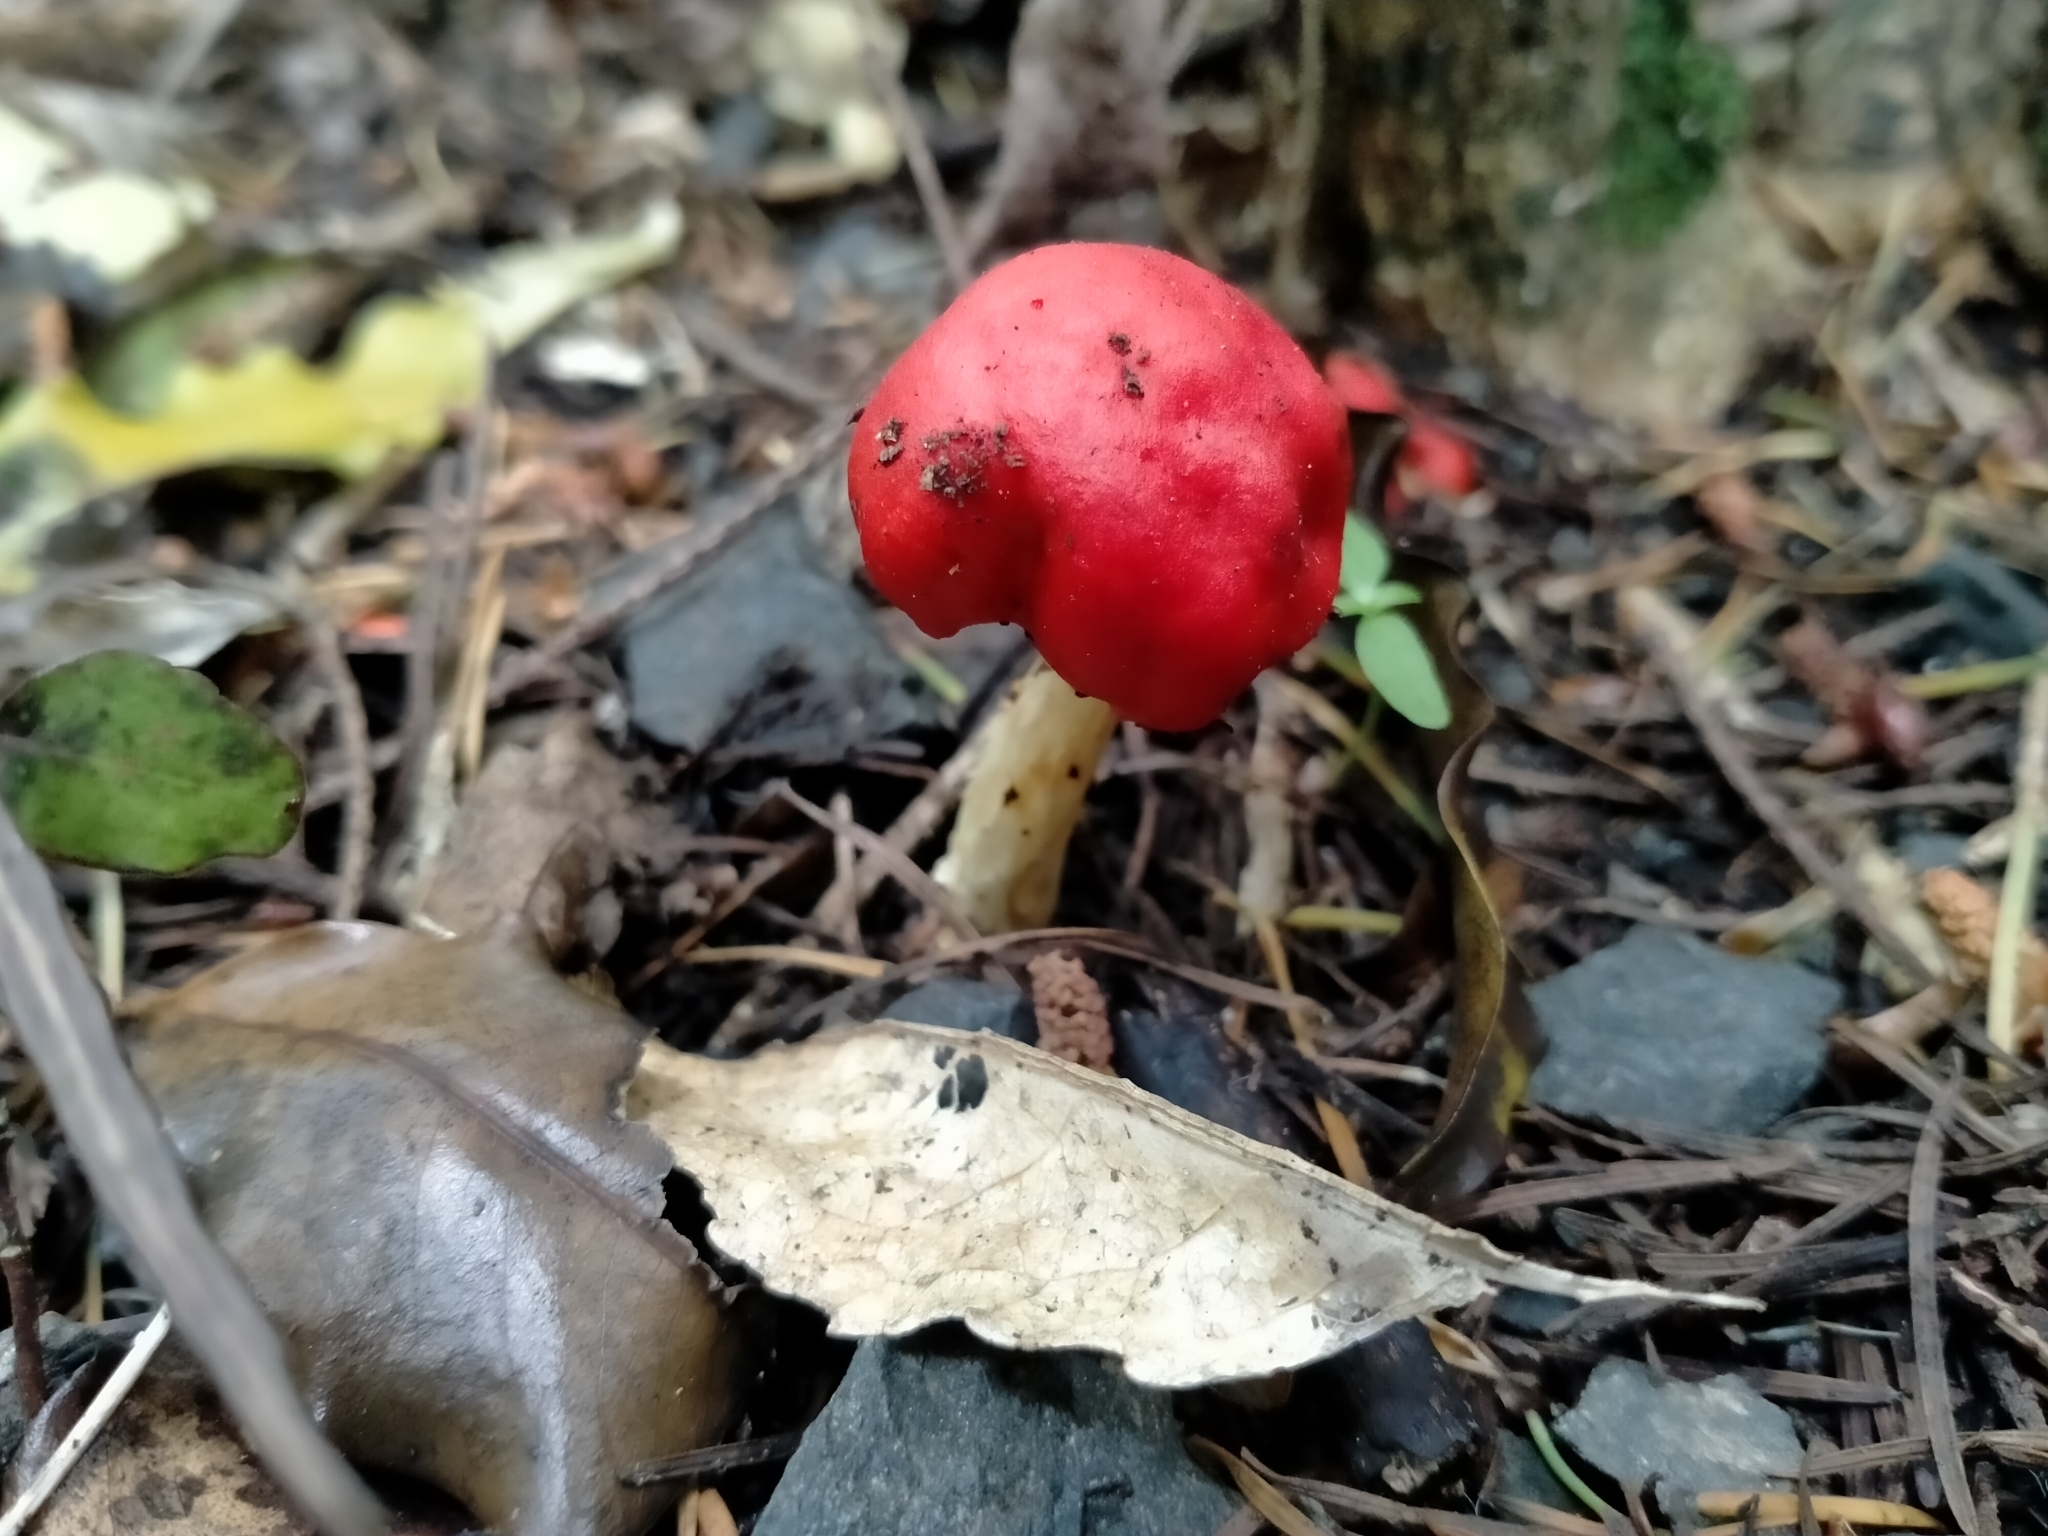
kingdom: Fungi
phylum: Basidiomycota
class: Agaricomycetes
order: Agaricales
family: Strophariaceae
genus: Leratiomyces
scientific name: Leratiomyces erythrocephalus
